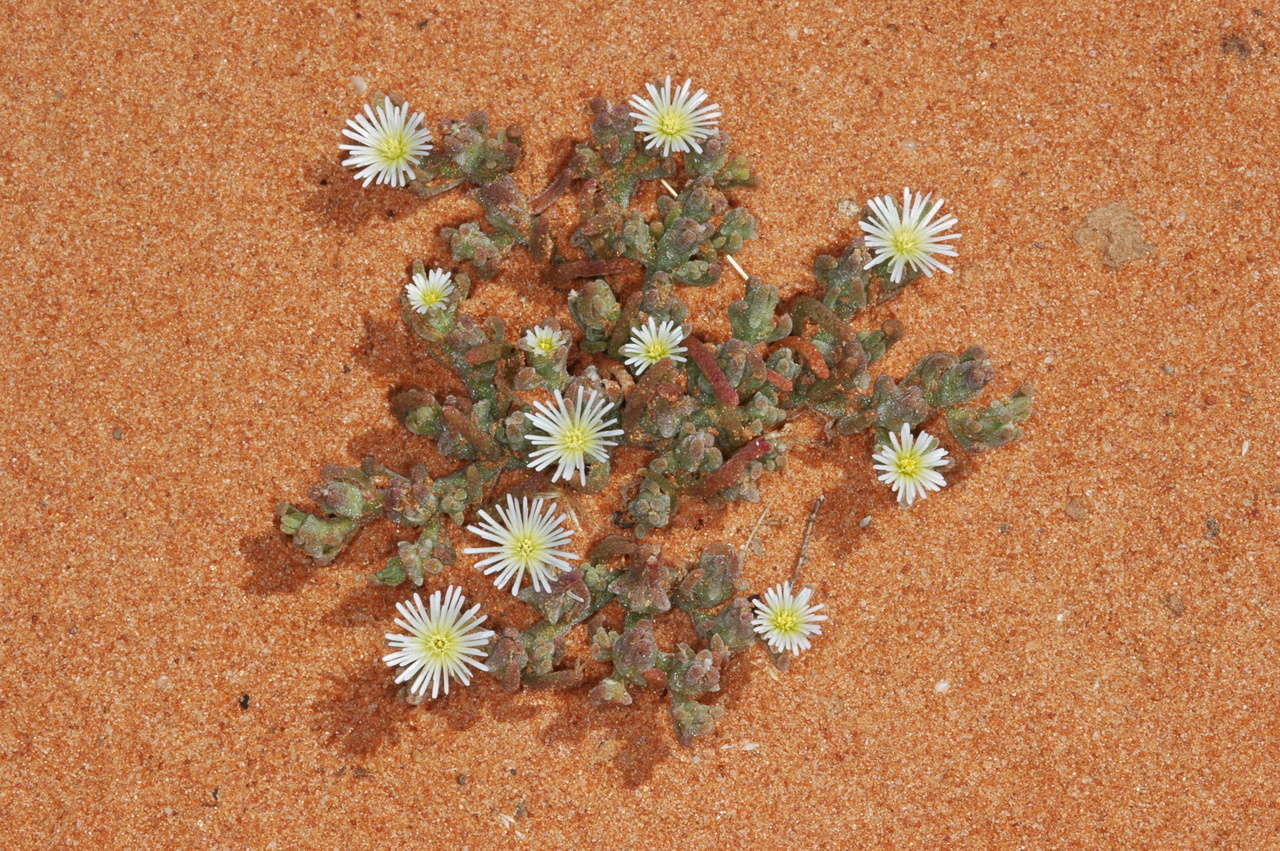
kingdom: Plantae
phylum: Tracheophyta
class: Magnoliopsida
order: Caryophyllales
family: Aizoaceae
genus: Mesembryanthemum
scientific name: Mesembryanthemum nodiflorum
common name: Slenderleaf iceplant
